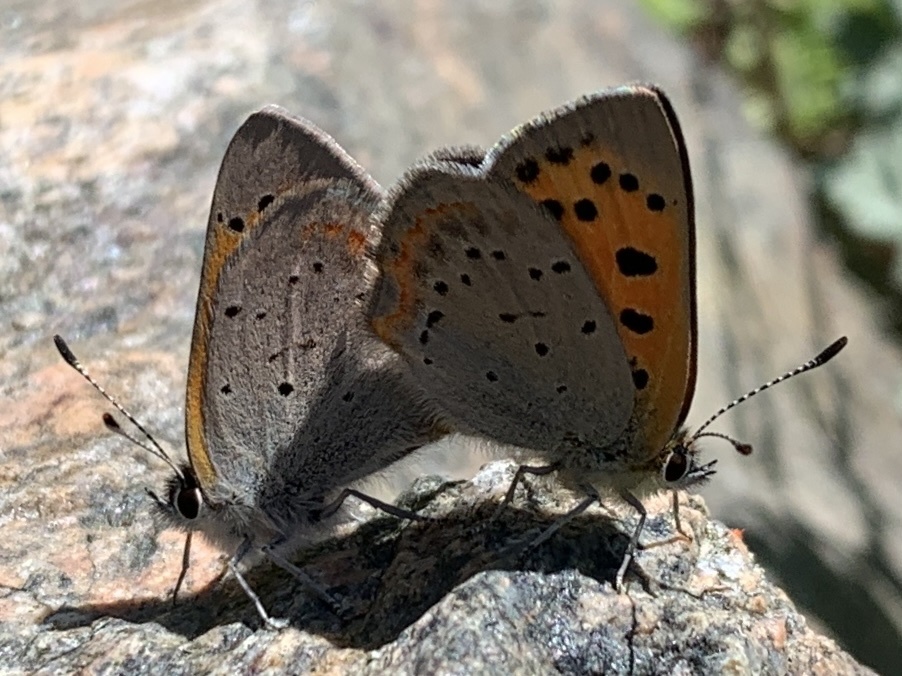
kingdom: Animalia
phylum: Arthropoda
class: Insecta
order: Lepidoptera
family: Lycaenidae
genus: Lycaena
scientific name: Lycaena hypophlaeas
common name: American copper
